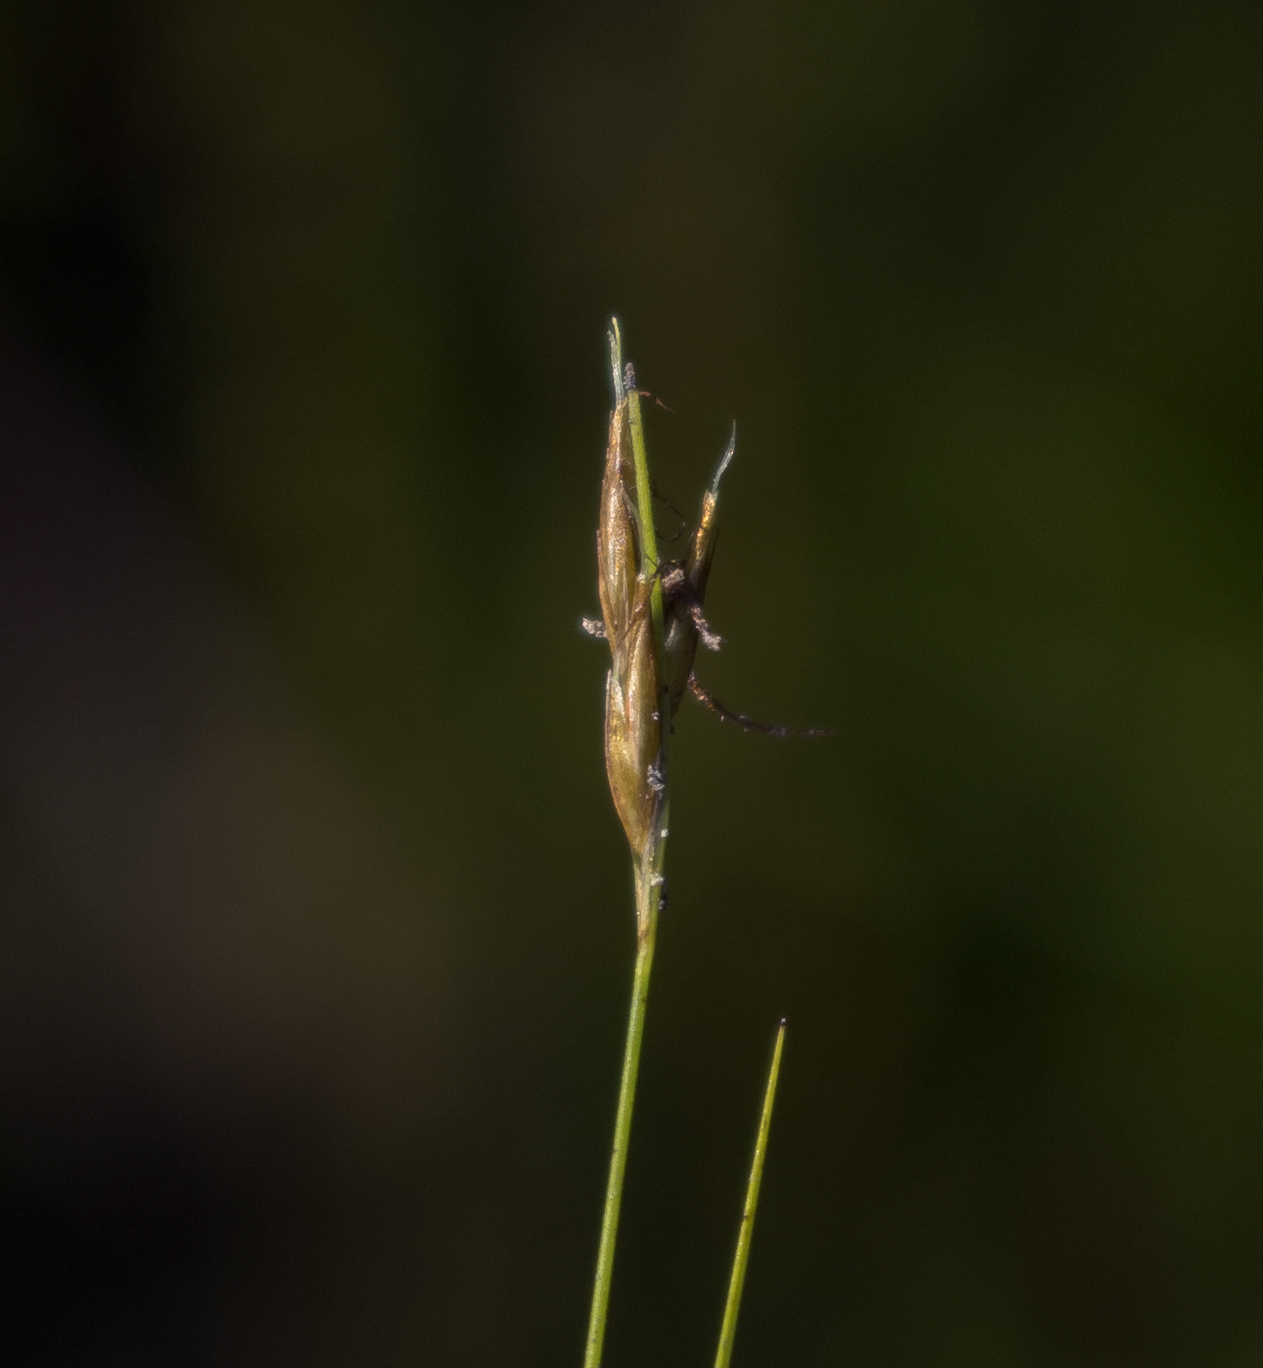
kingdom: Plantae
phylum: Tracheophyta
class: Liliopsida
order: Poales
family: Cyperaceae
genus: Rhynchospora
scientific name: Rhynchospora capillacea
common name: Capillary beakrush
